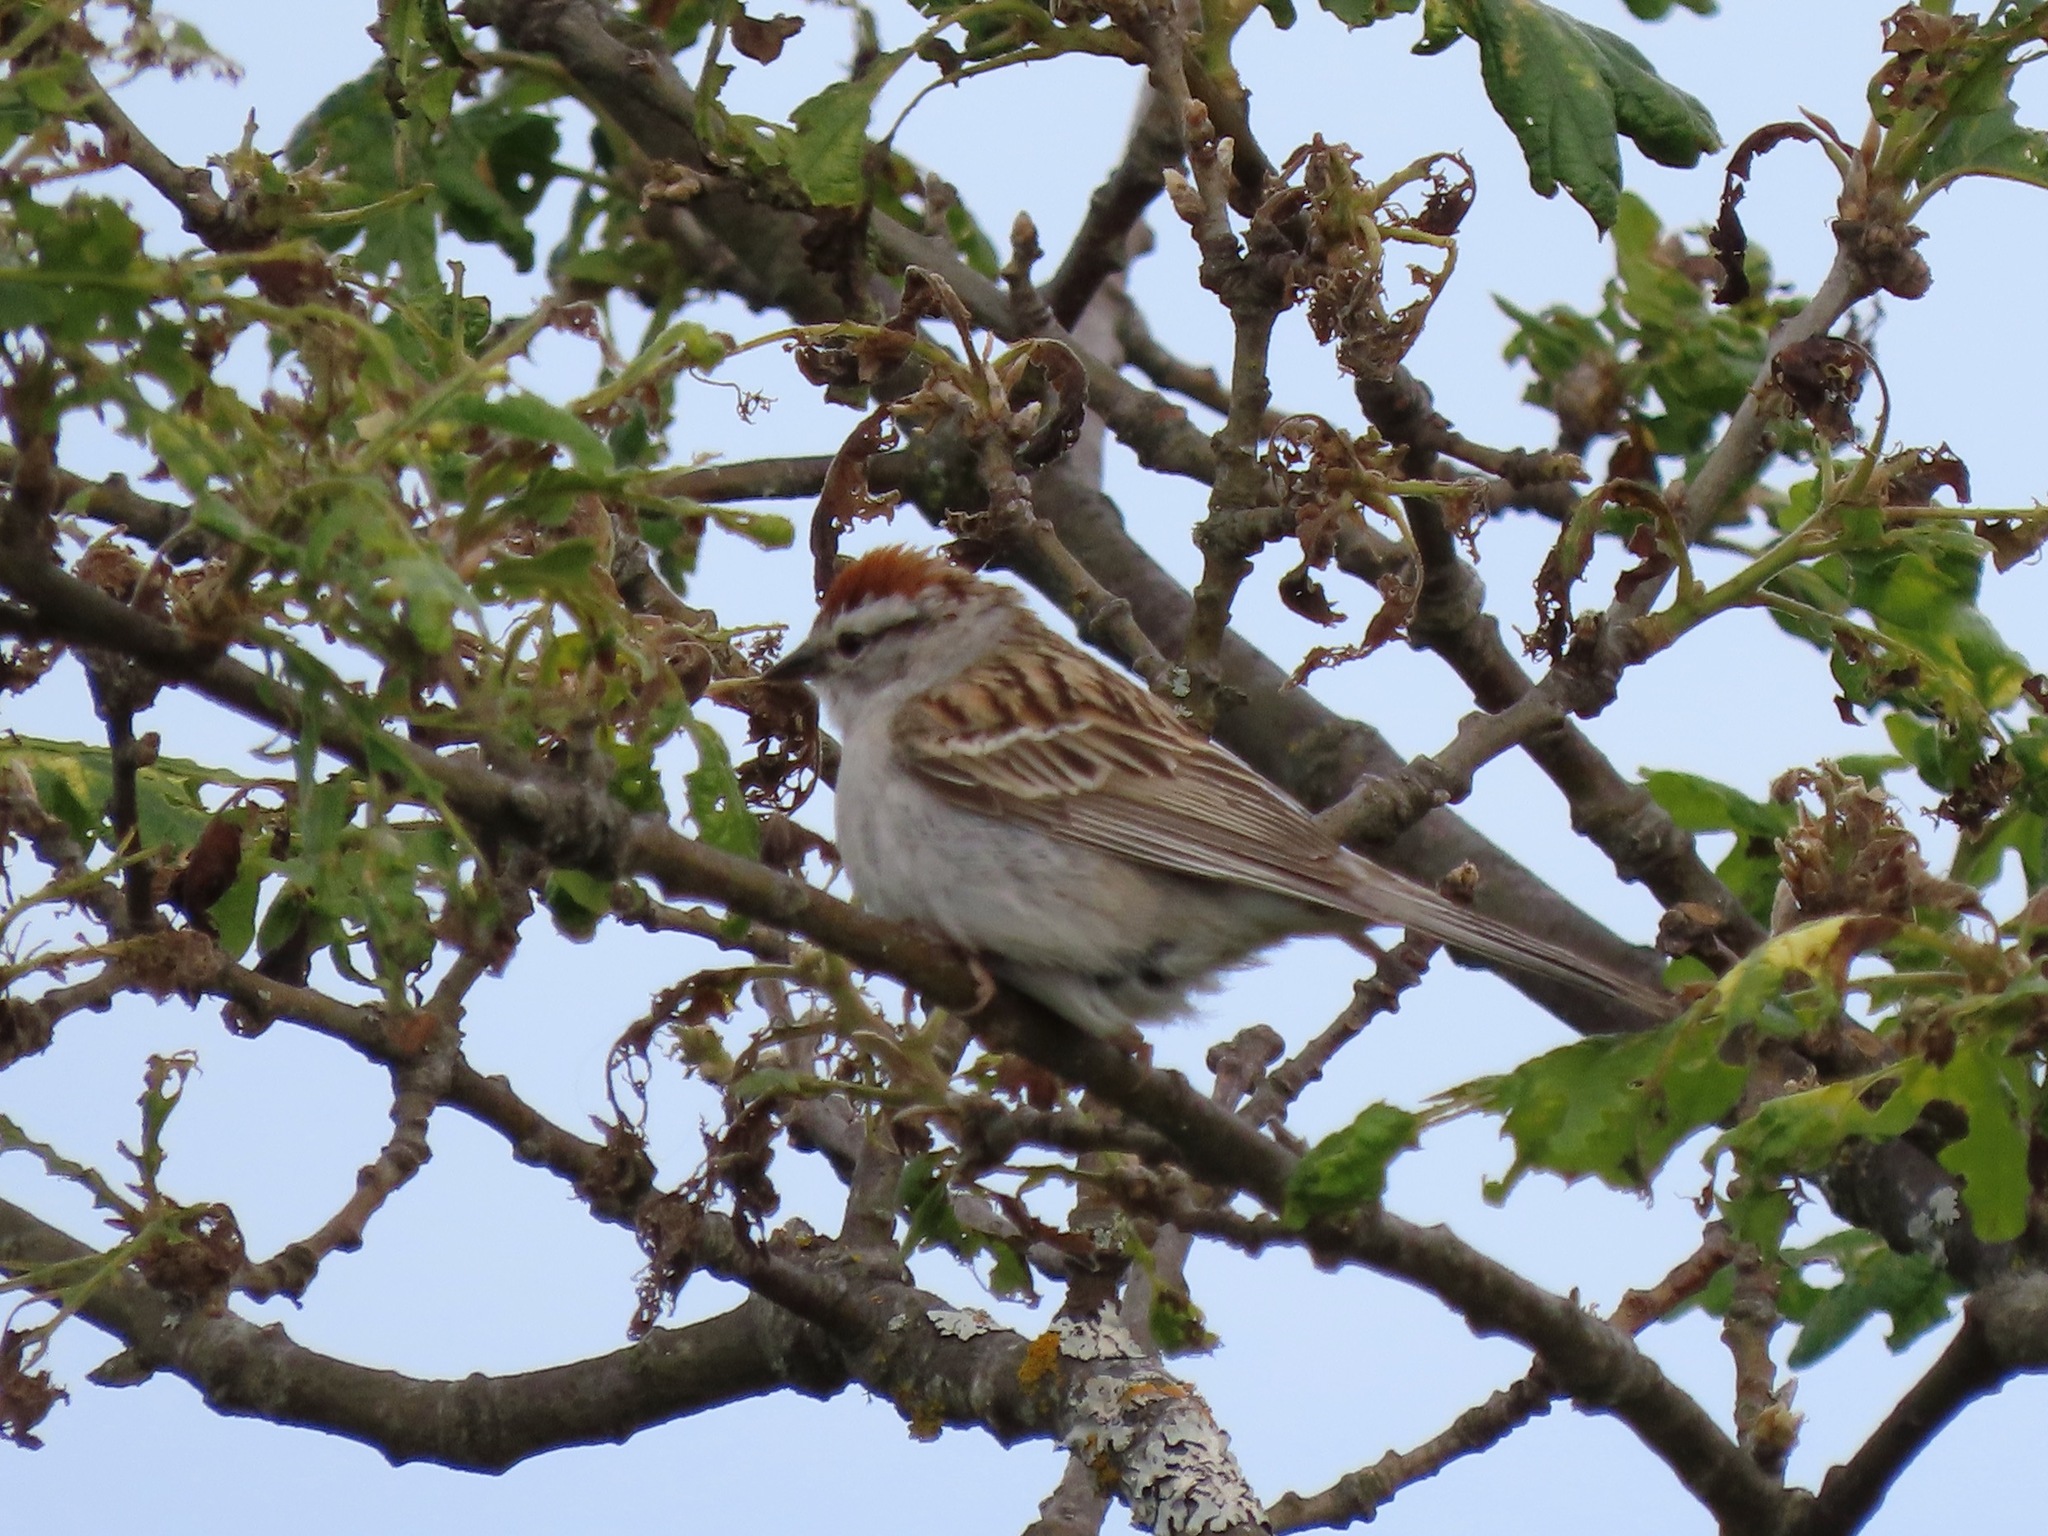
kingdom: Animalia
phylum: Chordata
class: Aves
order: Passeriformes
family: Passerellidae
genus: Spizella
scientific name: Spizella passerina
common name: Chipping sparrow
